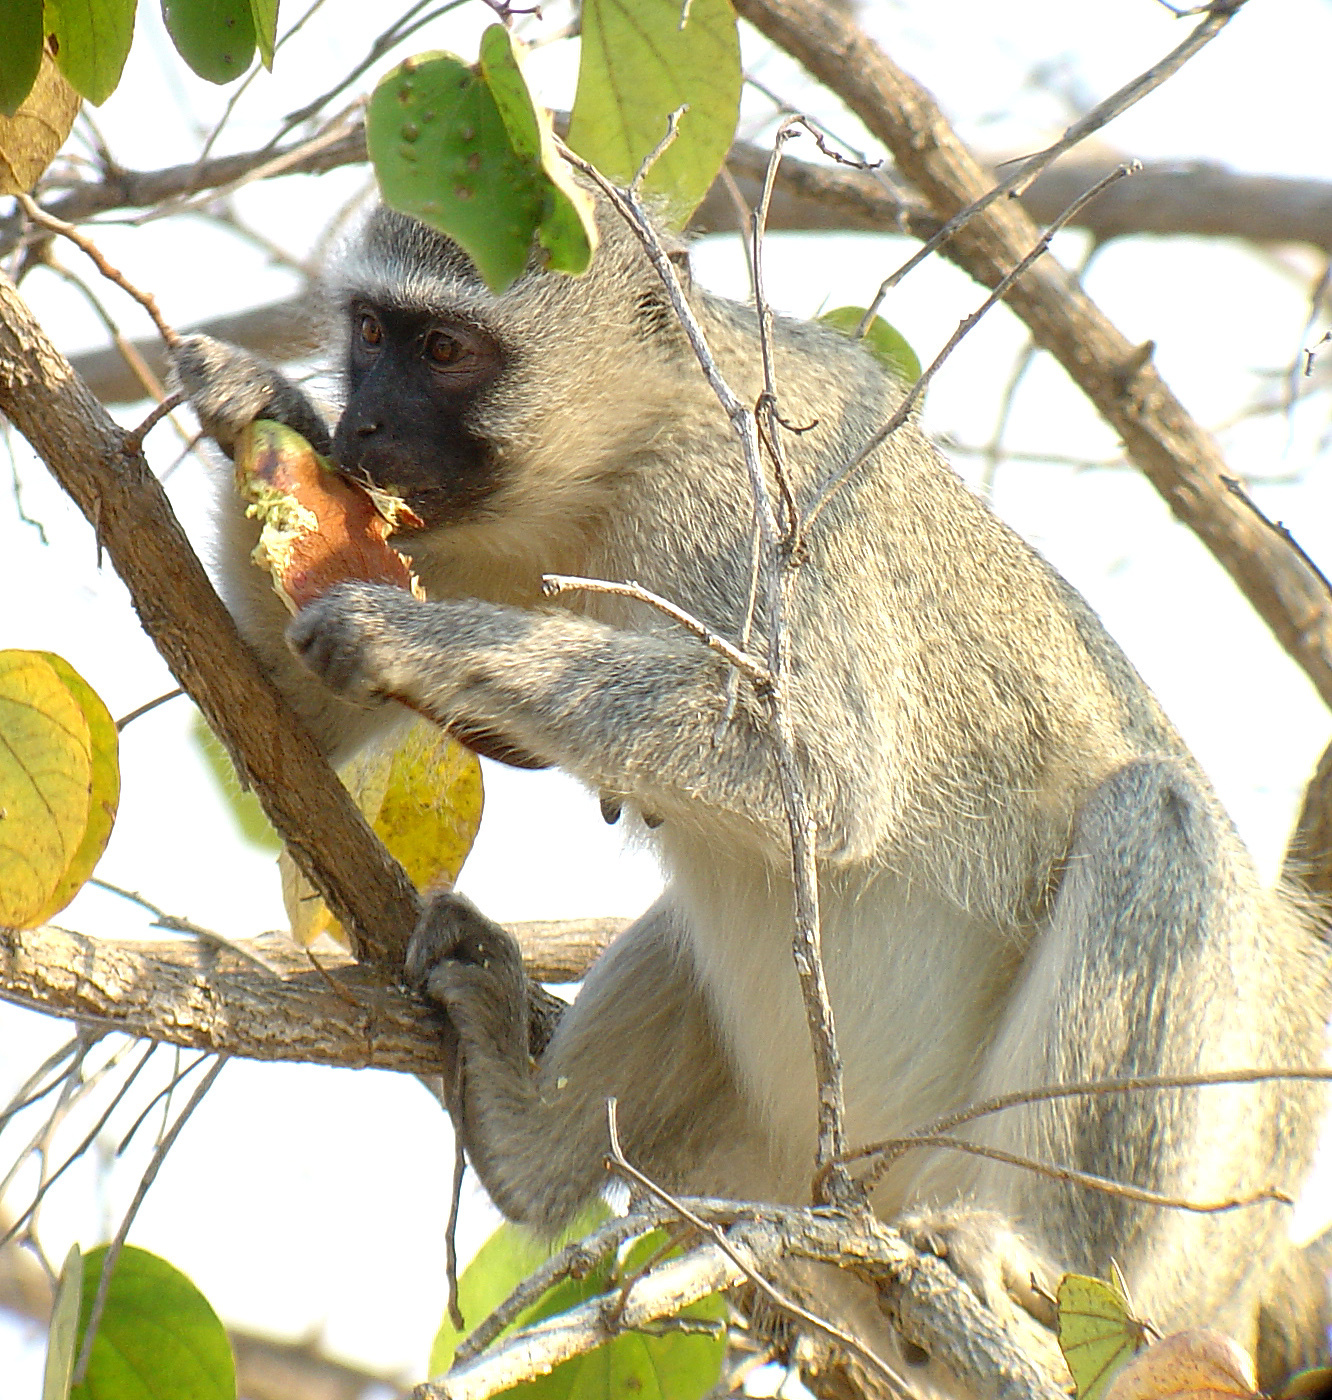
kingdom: Animalia
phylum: Chordata
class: Mammalia
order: Primates
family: Cercopithecidae
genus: Chlorocebus
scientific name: Chlorocebus pygerythrus
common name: Vervet monkey
